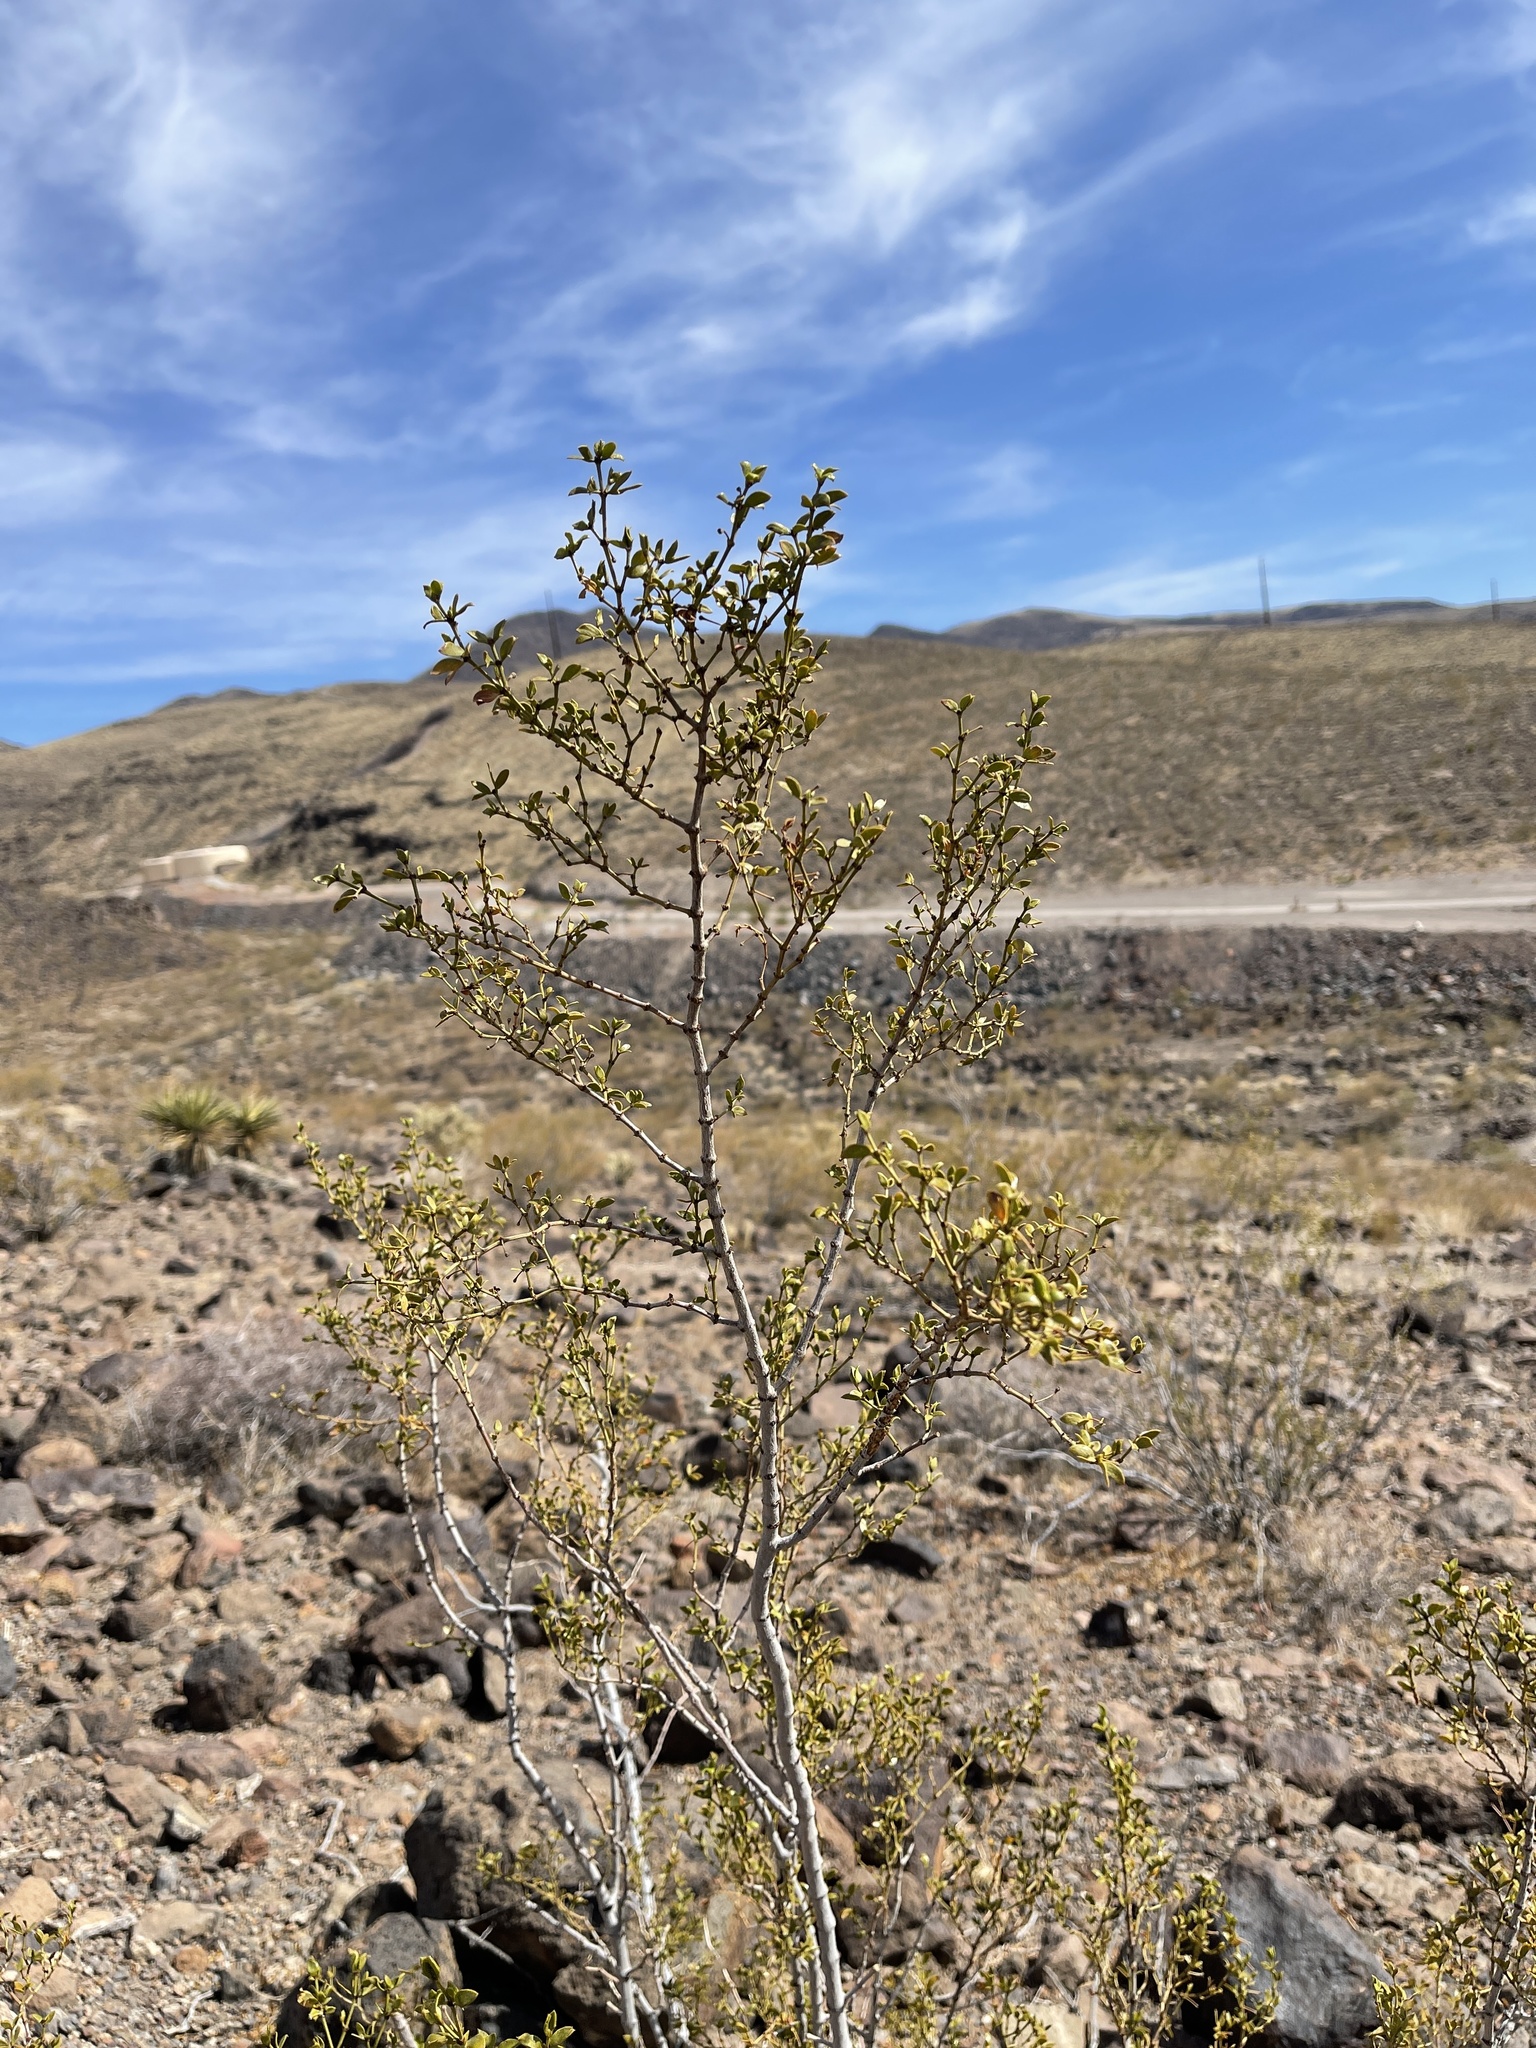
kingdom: Plantae
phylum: Tracheophyta
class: Magnoliopsida
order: Zygophyllales
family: Zygophyllaceae
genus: Larrea
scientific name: Larrea tridentata
